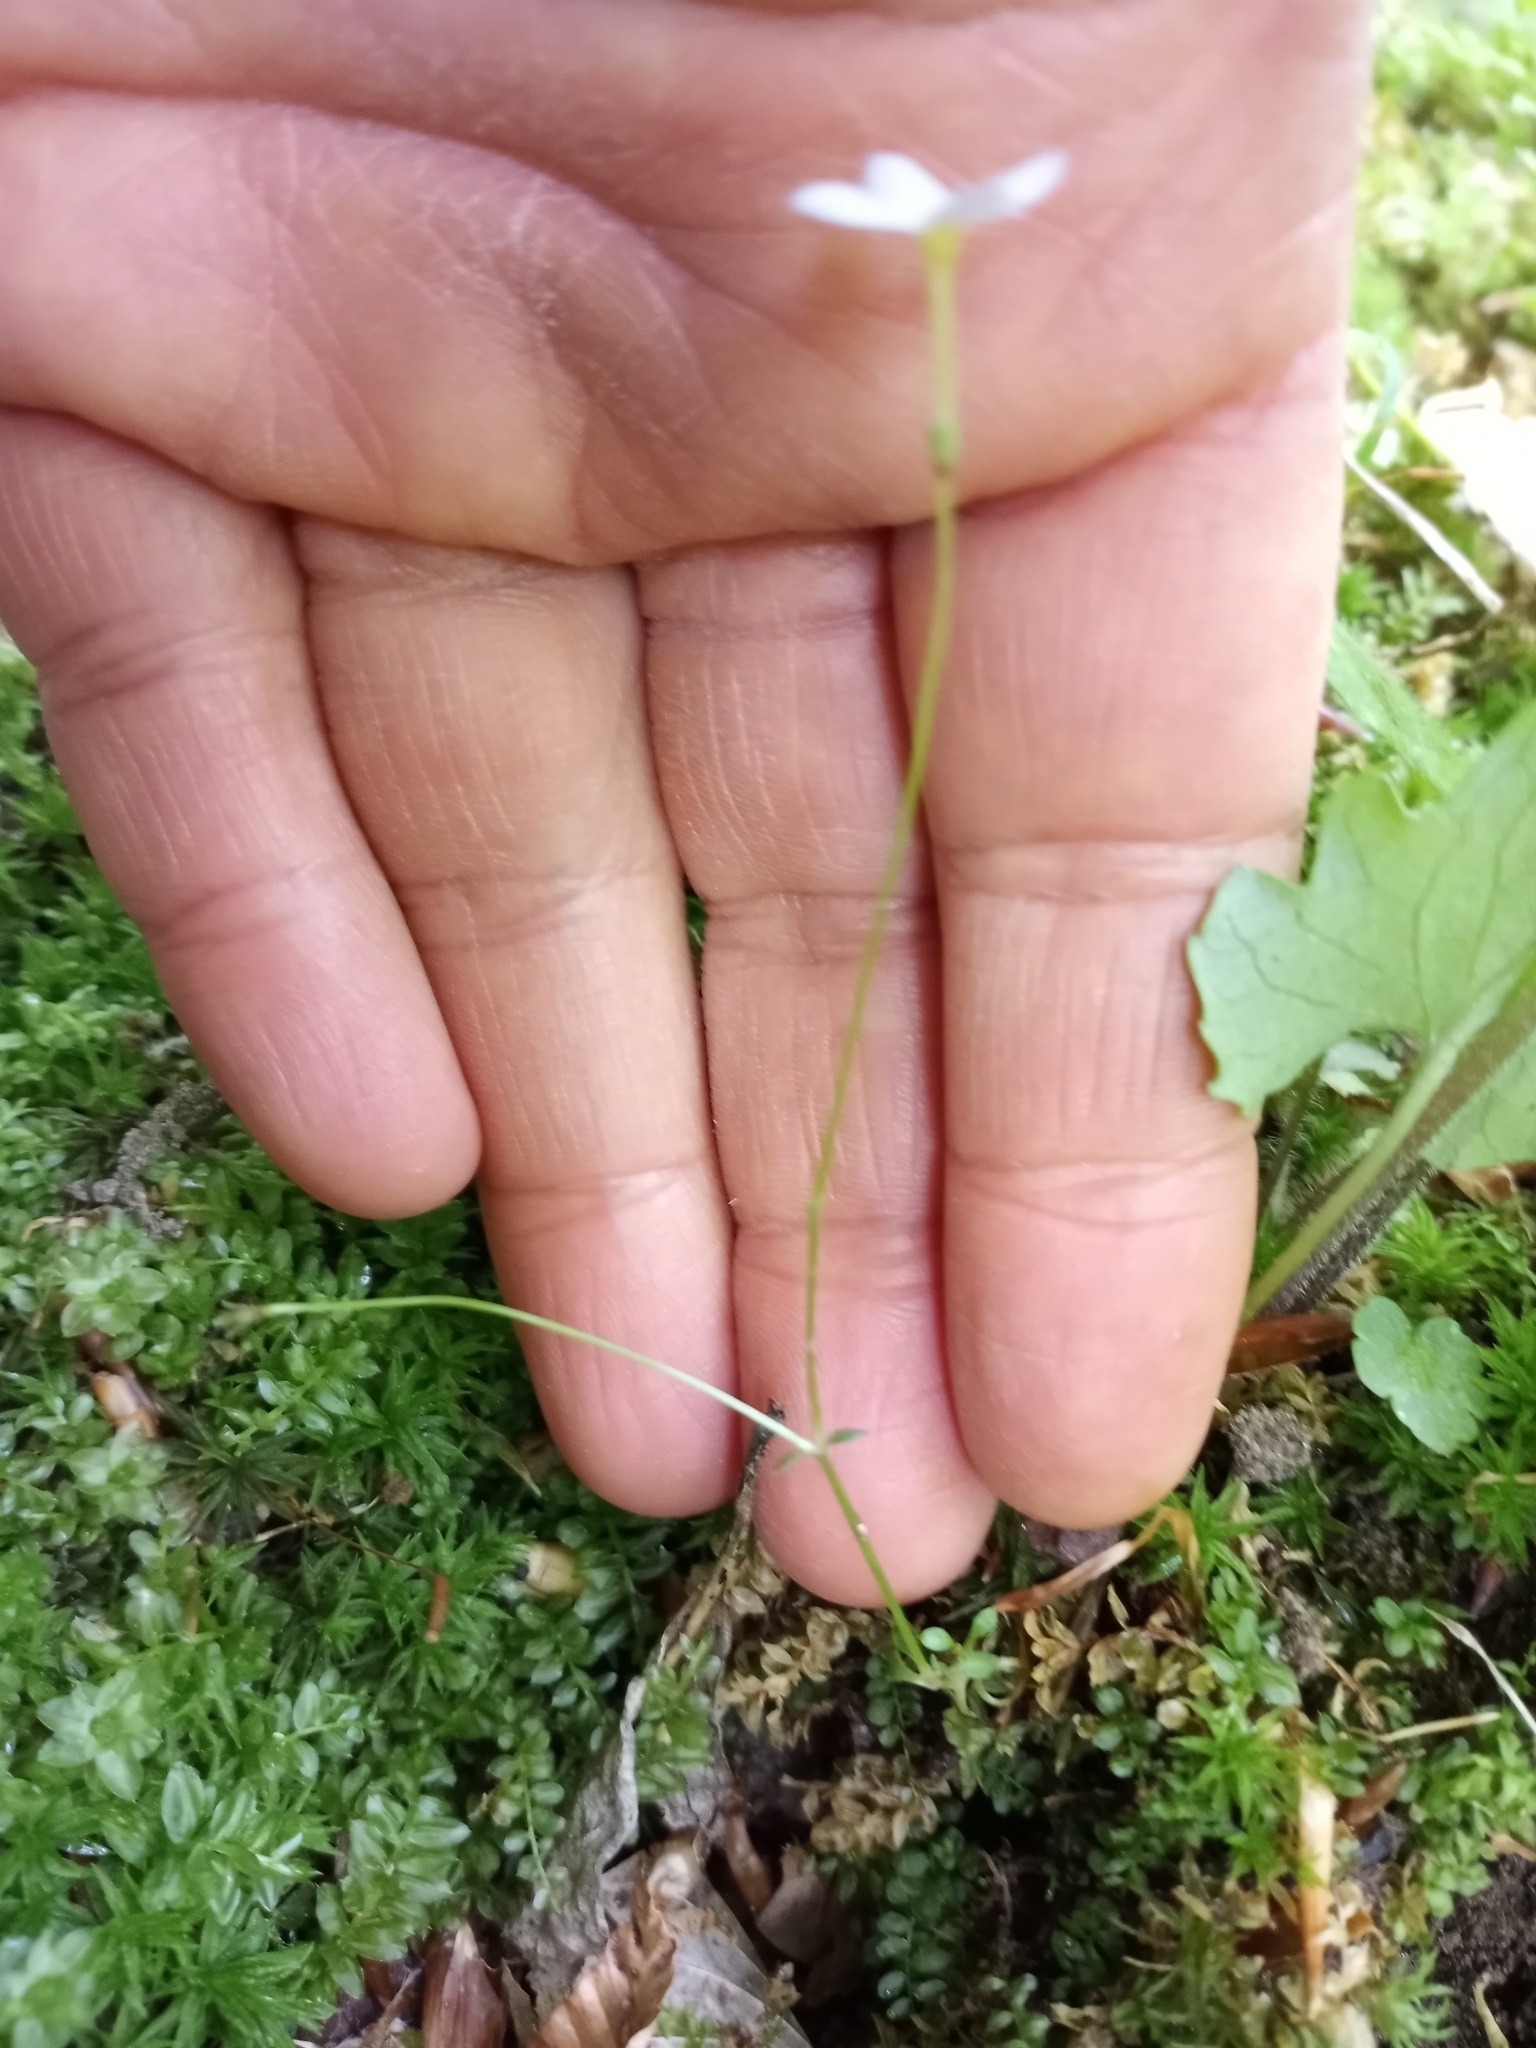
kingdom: Plantae
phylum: Tracheophyta
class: Magnoliopsida
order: Gentianales
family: Rubiaceae
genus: Houstonia
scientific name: Houstonia caerulea
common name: Bluets
